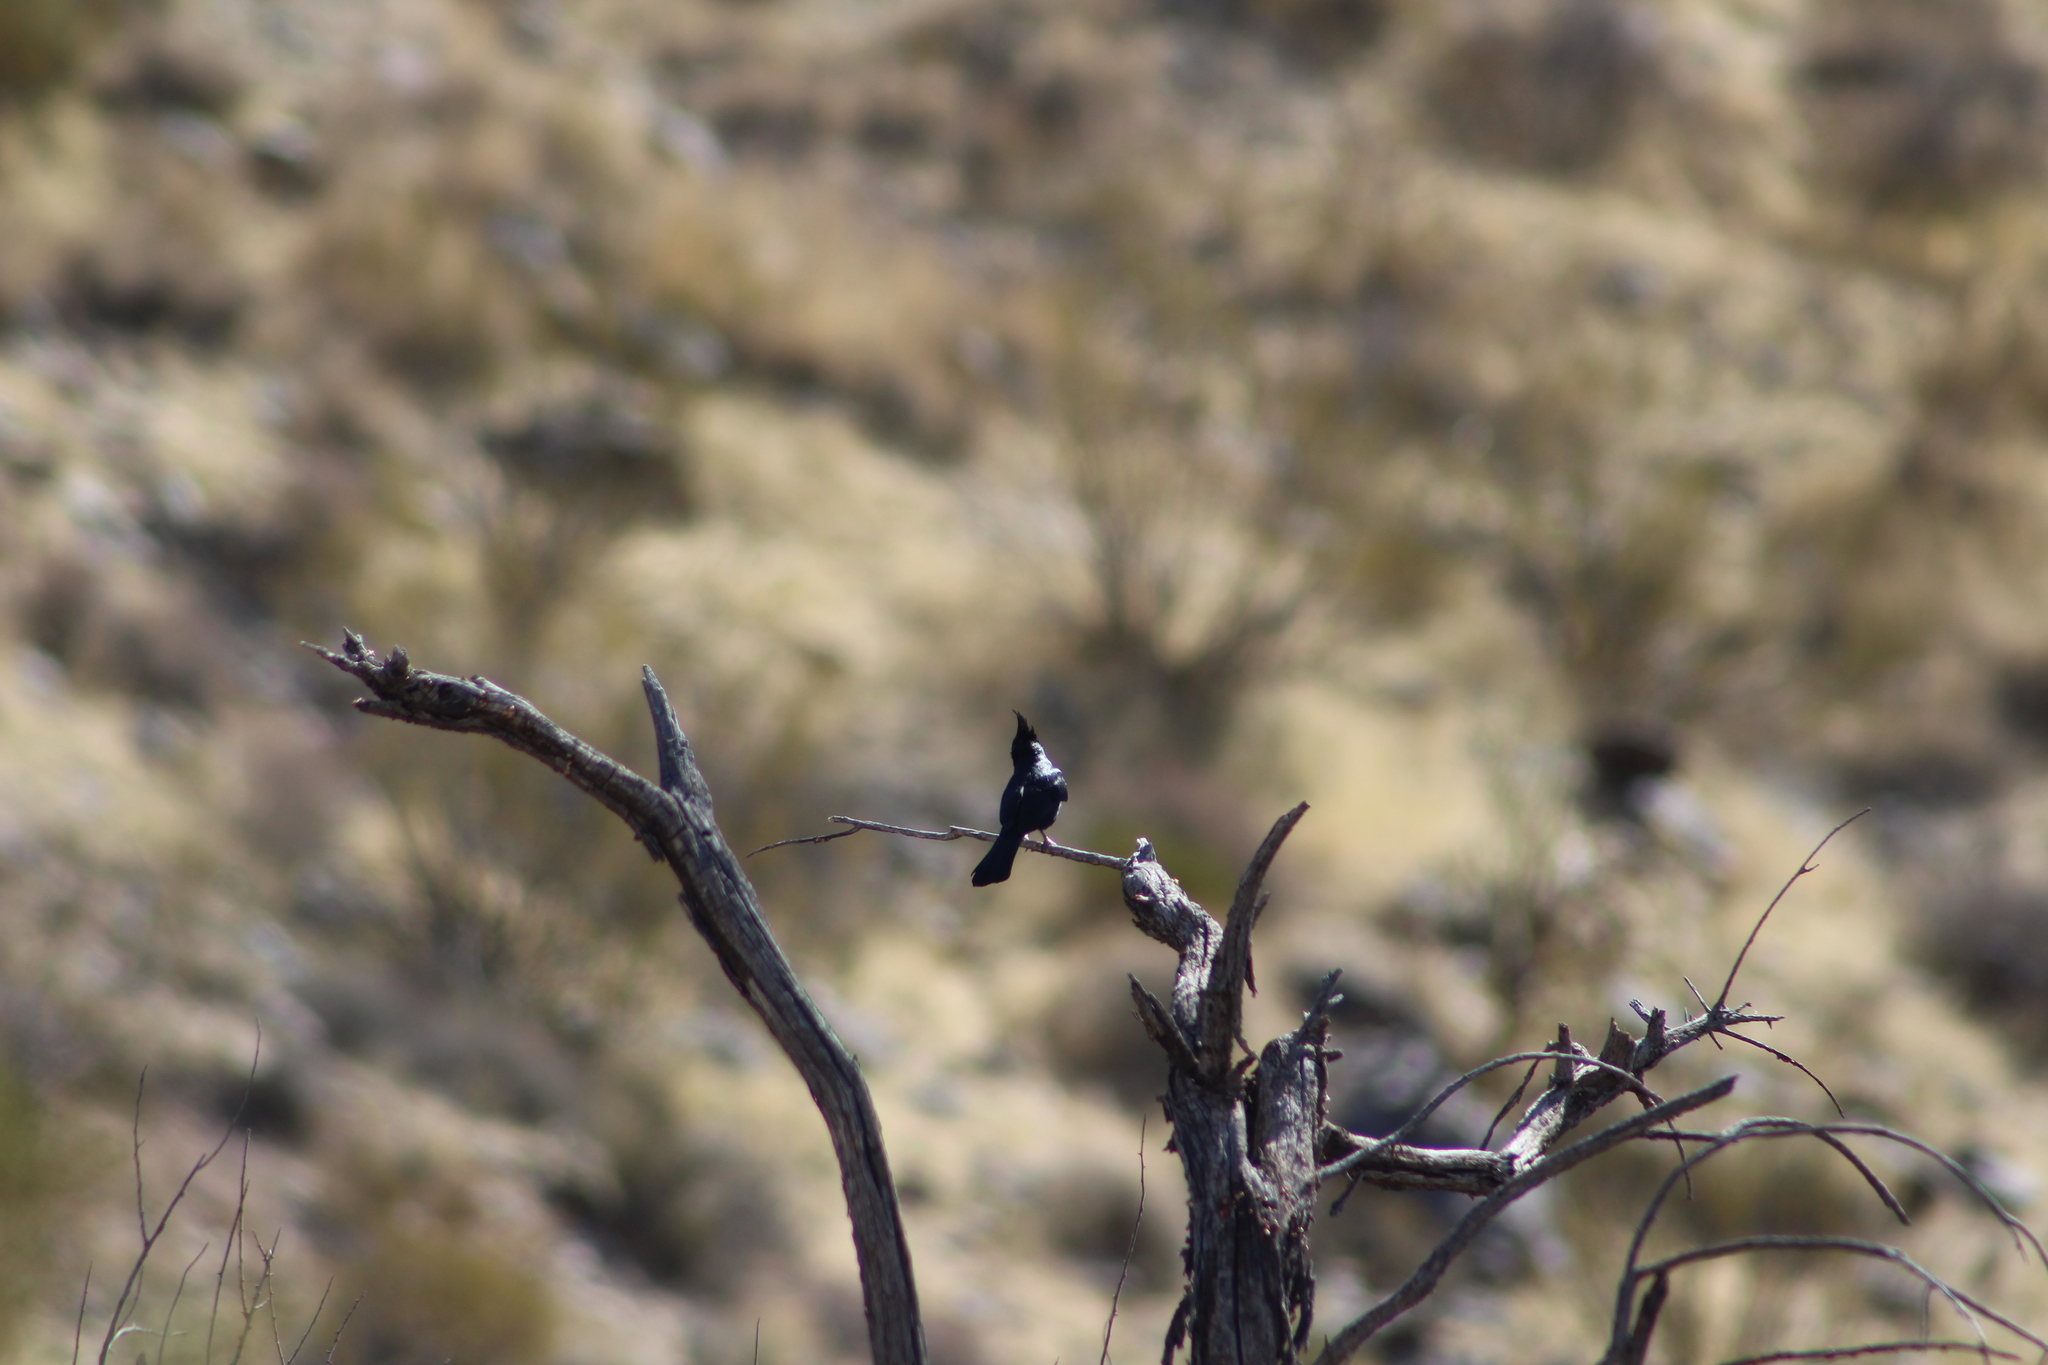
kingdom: Animalia
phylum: Chordata
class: Aves
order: Passeriformes
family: Ptilogonatidae
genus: Phainopepla
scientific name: Phainopepla nitens
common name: Phainopepla
